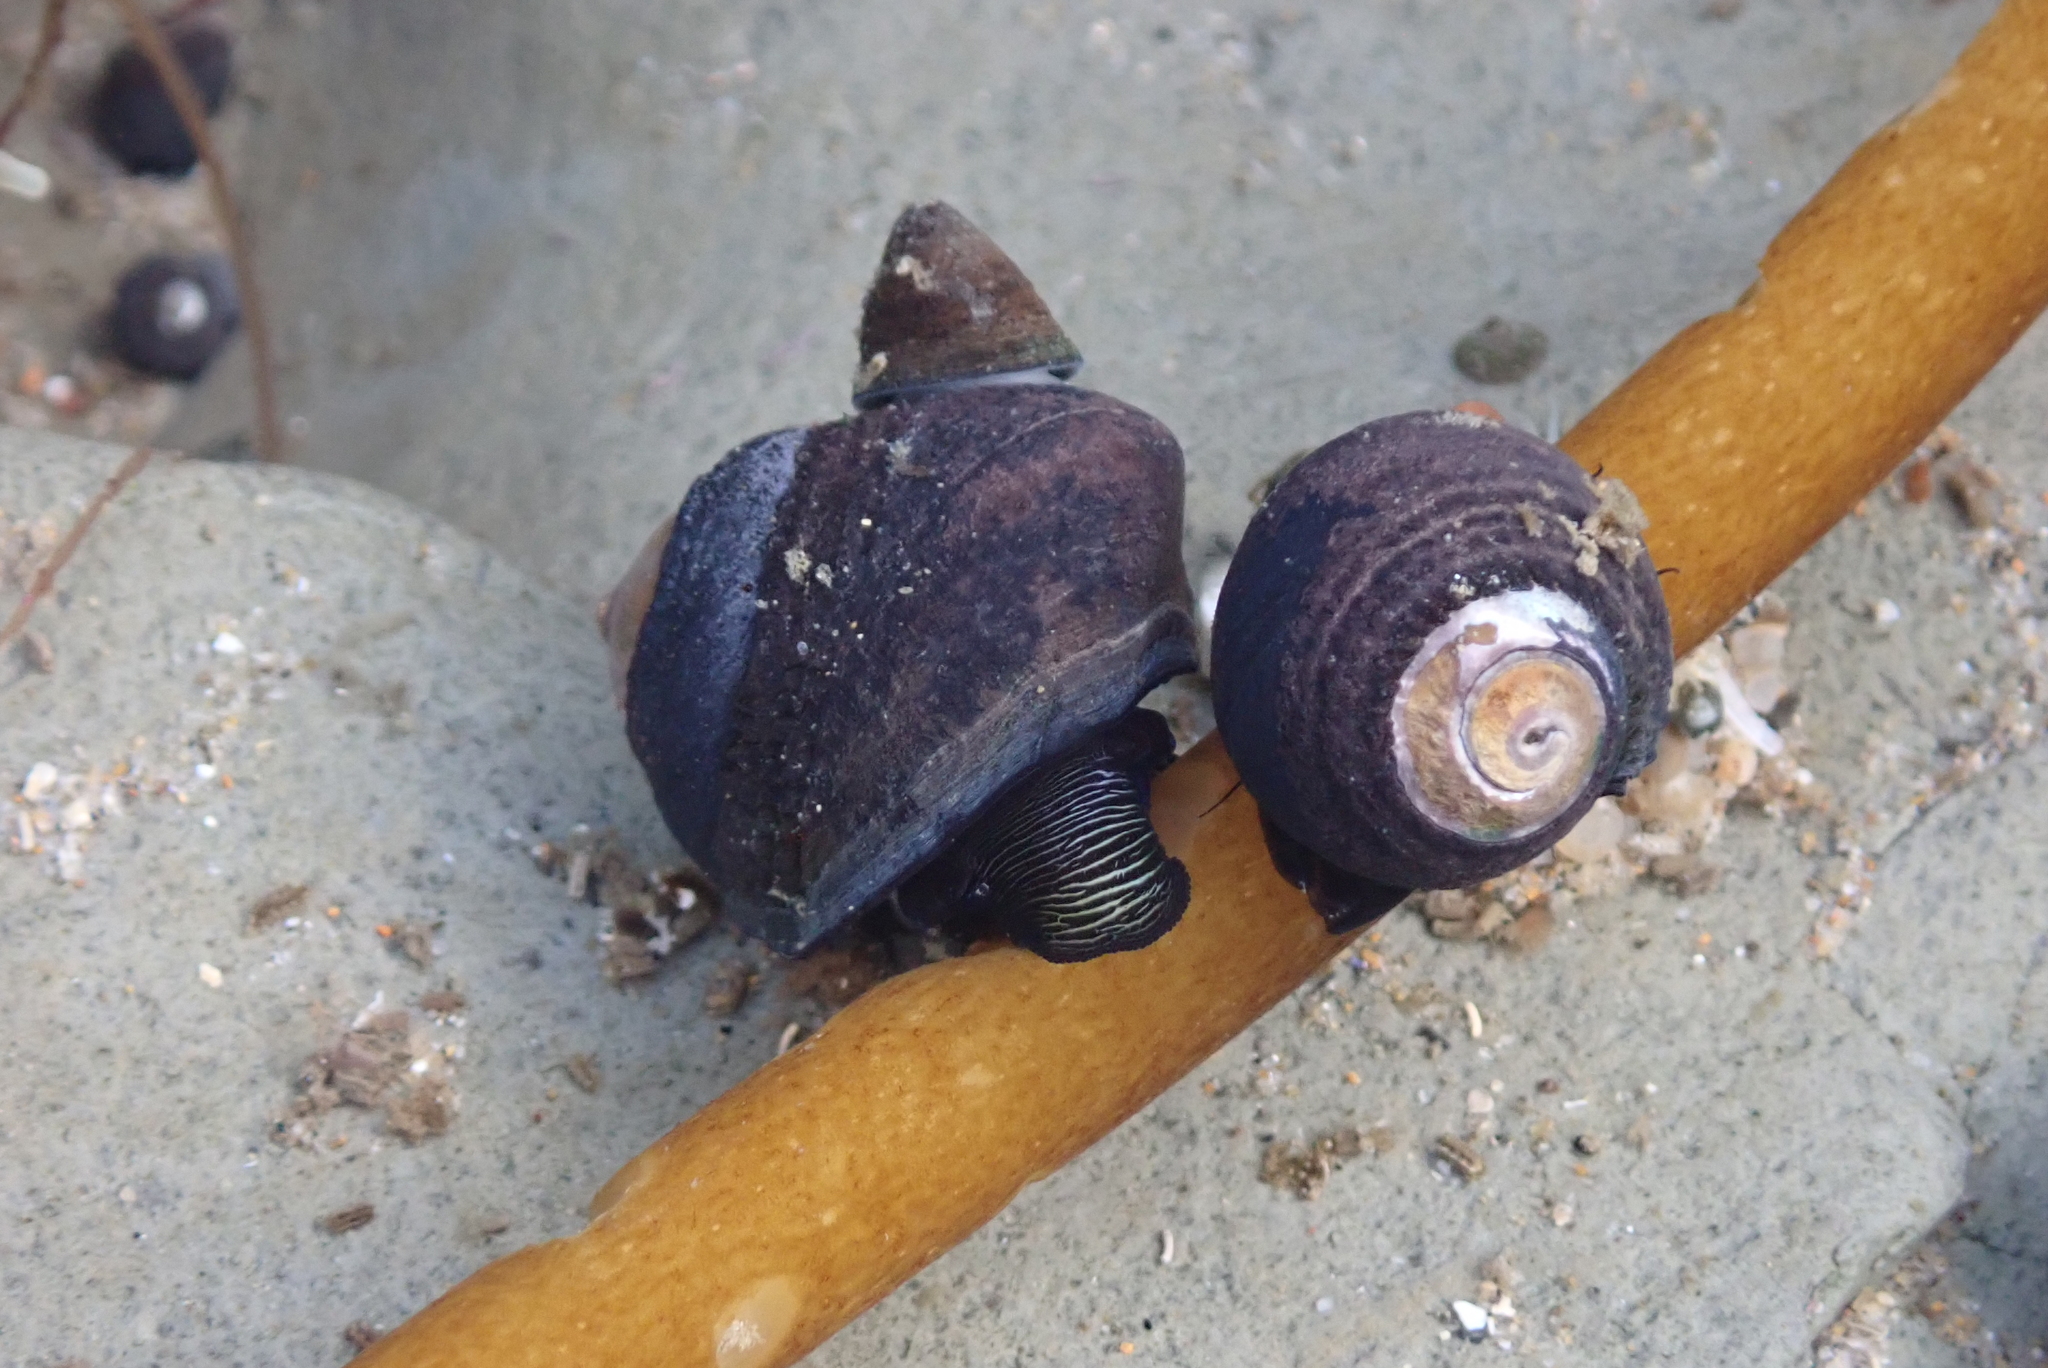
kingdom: Animalia
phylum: Mollusca
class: Gastropoda
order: Trochida
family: Tegulidae
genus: Tegula
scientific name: Tegula funebralis
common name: Black tegula
